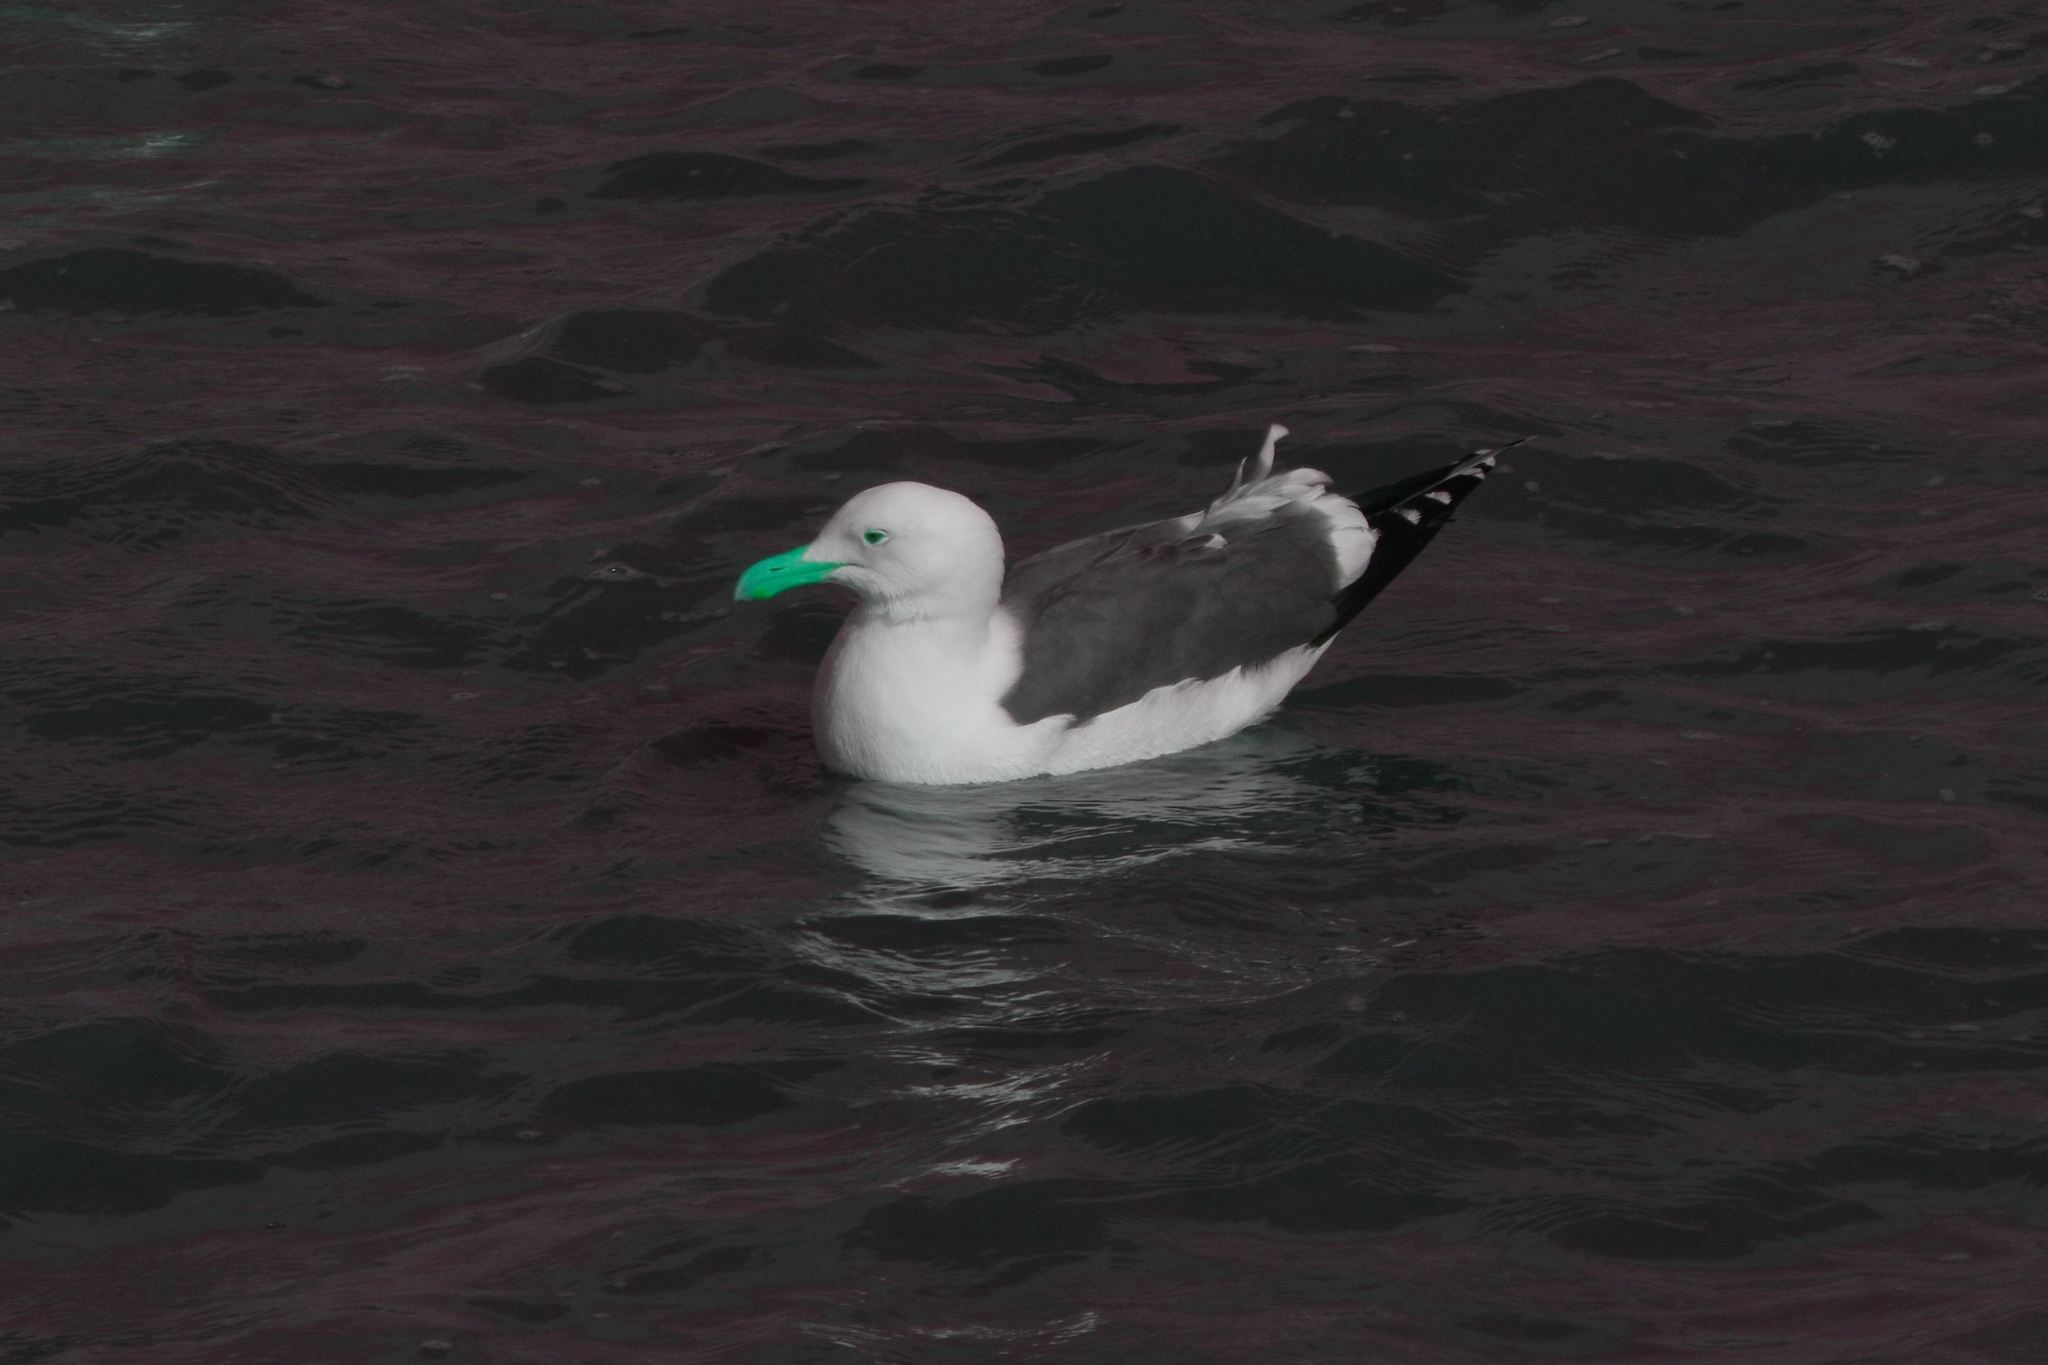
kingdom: Animalia
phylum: Chordata
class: Aves
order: Charadriiformes
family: Laridae
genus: Larus
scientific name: Larus occidentalis
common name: Western gull
